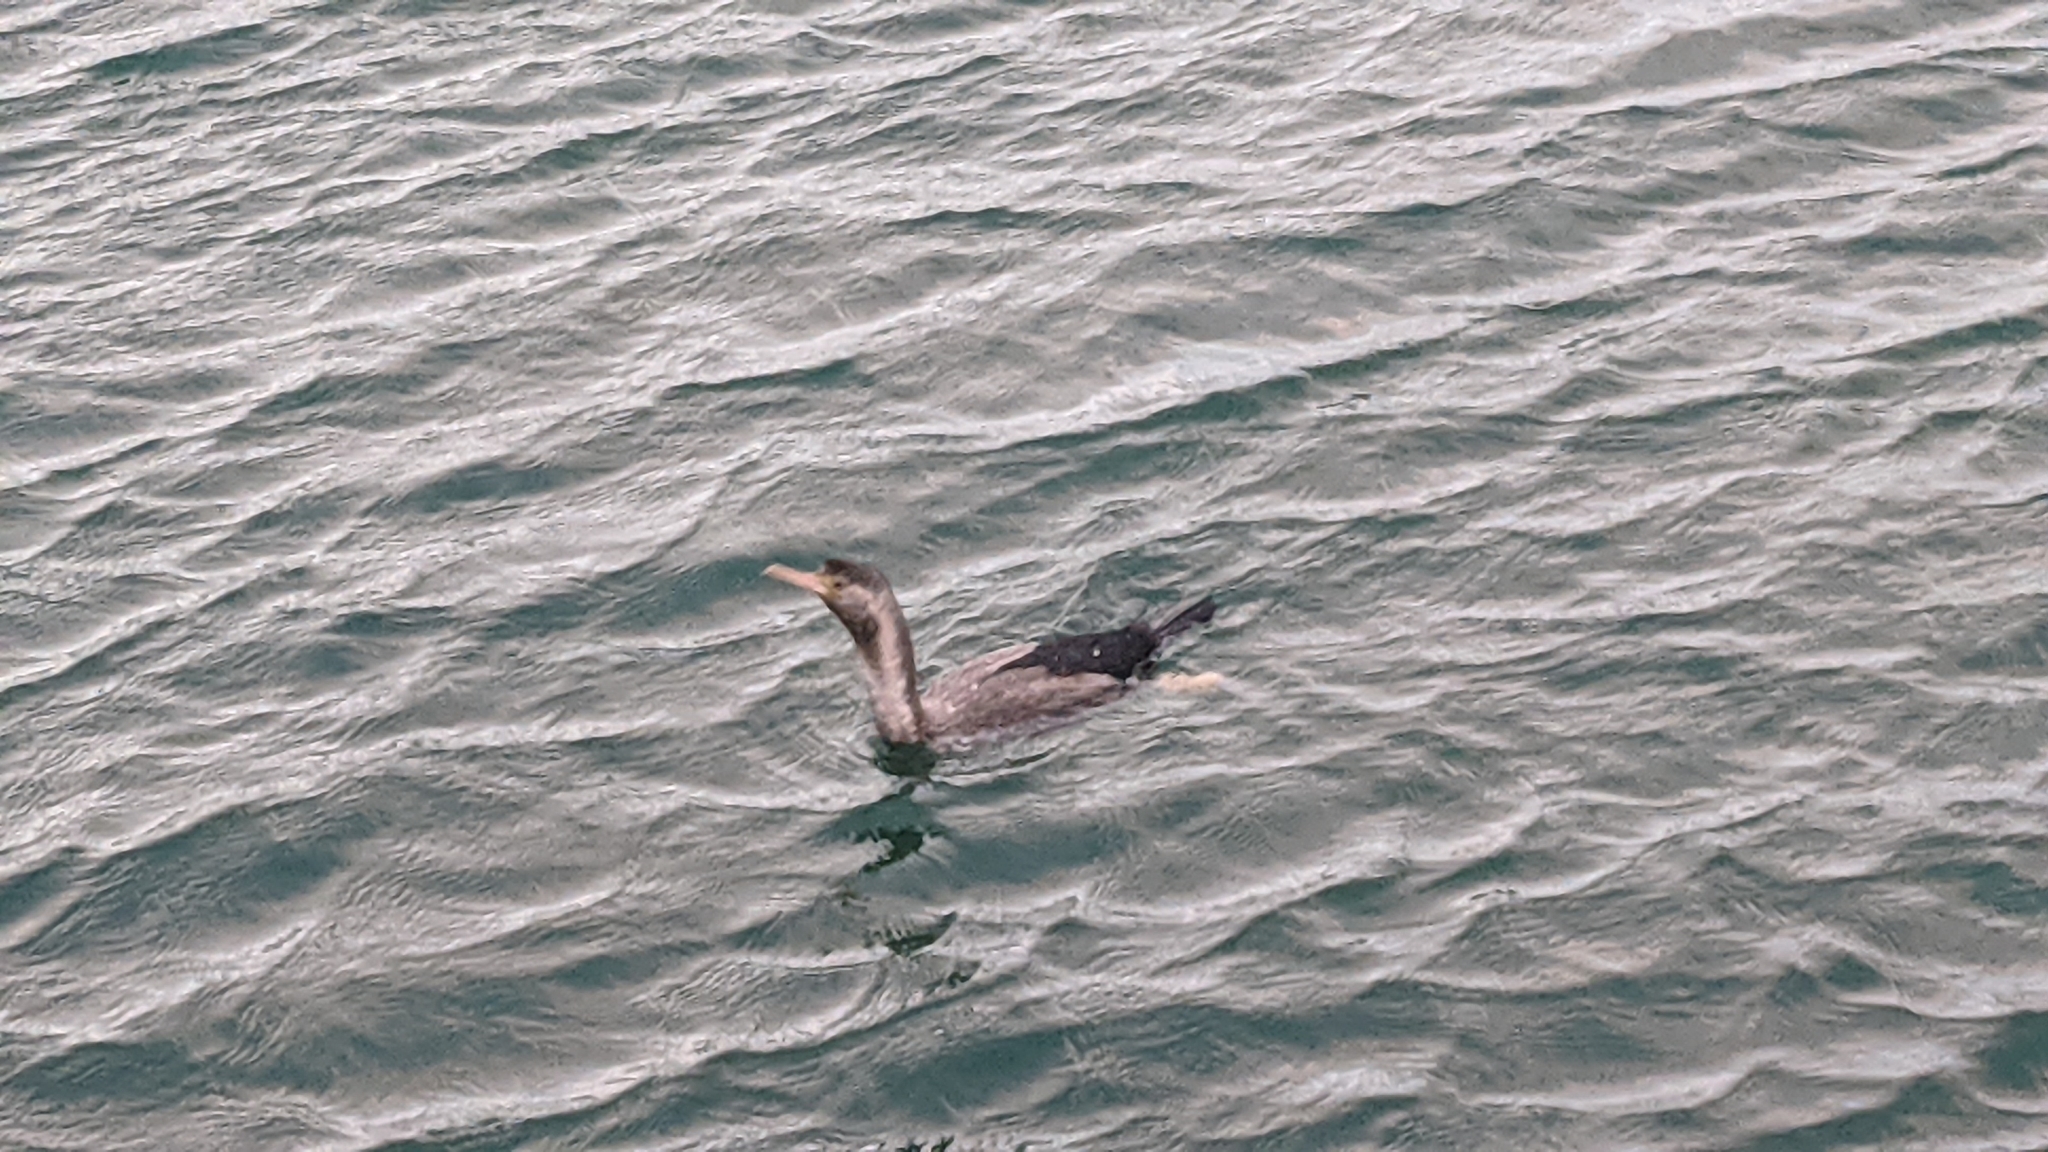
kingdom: Animalia
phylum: Chordata
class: Aves
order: Suliformes
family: Phalacrocoracidae
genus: Phalacrocorax
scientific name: Phalacrocorax punctatus
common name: Spotted shag
